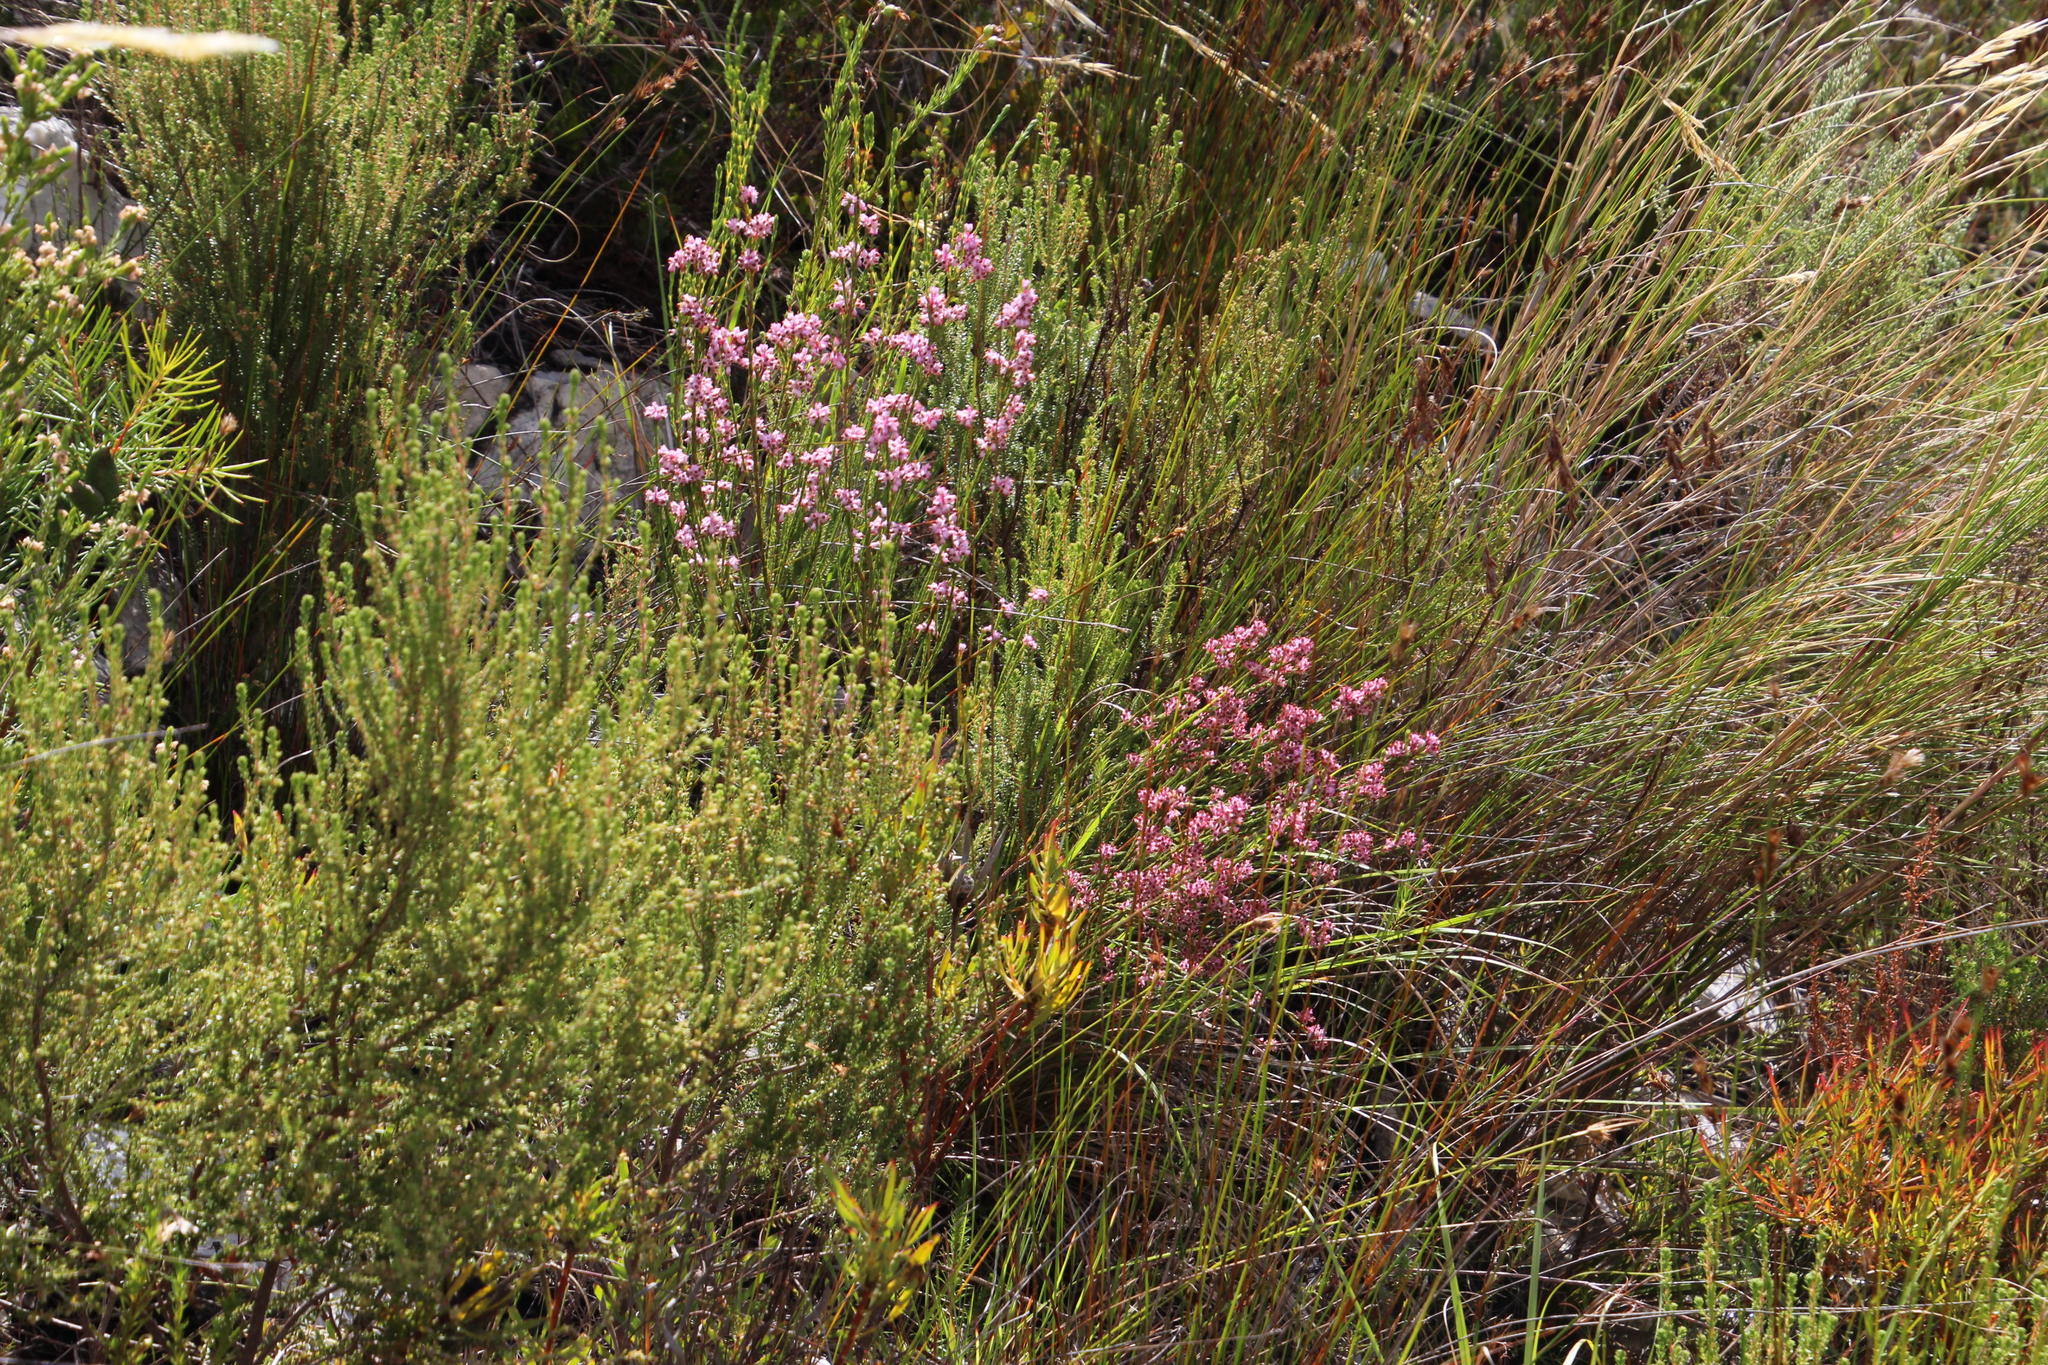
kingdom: Plantae
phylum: Tracheophyta
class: Magnoliopsida
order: Ericales
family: Ericaceae
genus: Erica
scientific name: Erica corifolia
